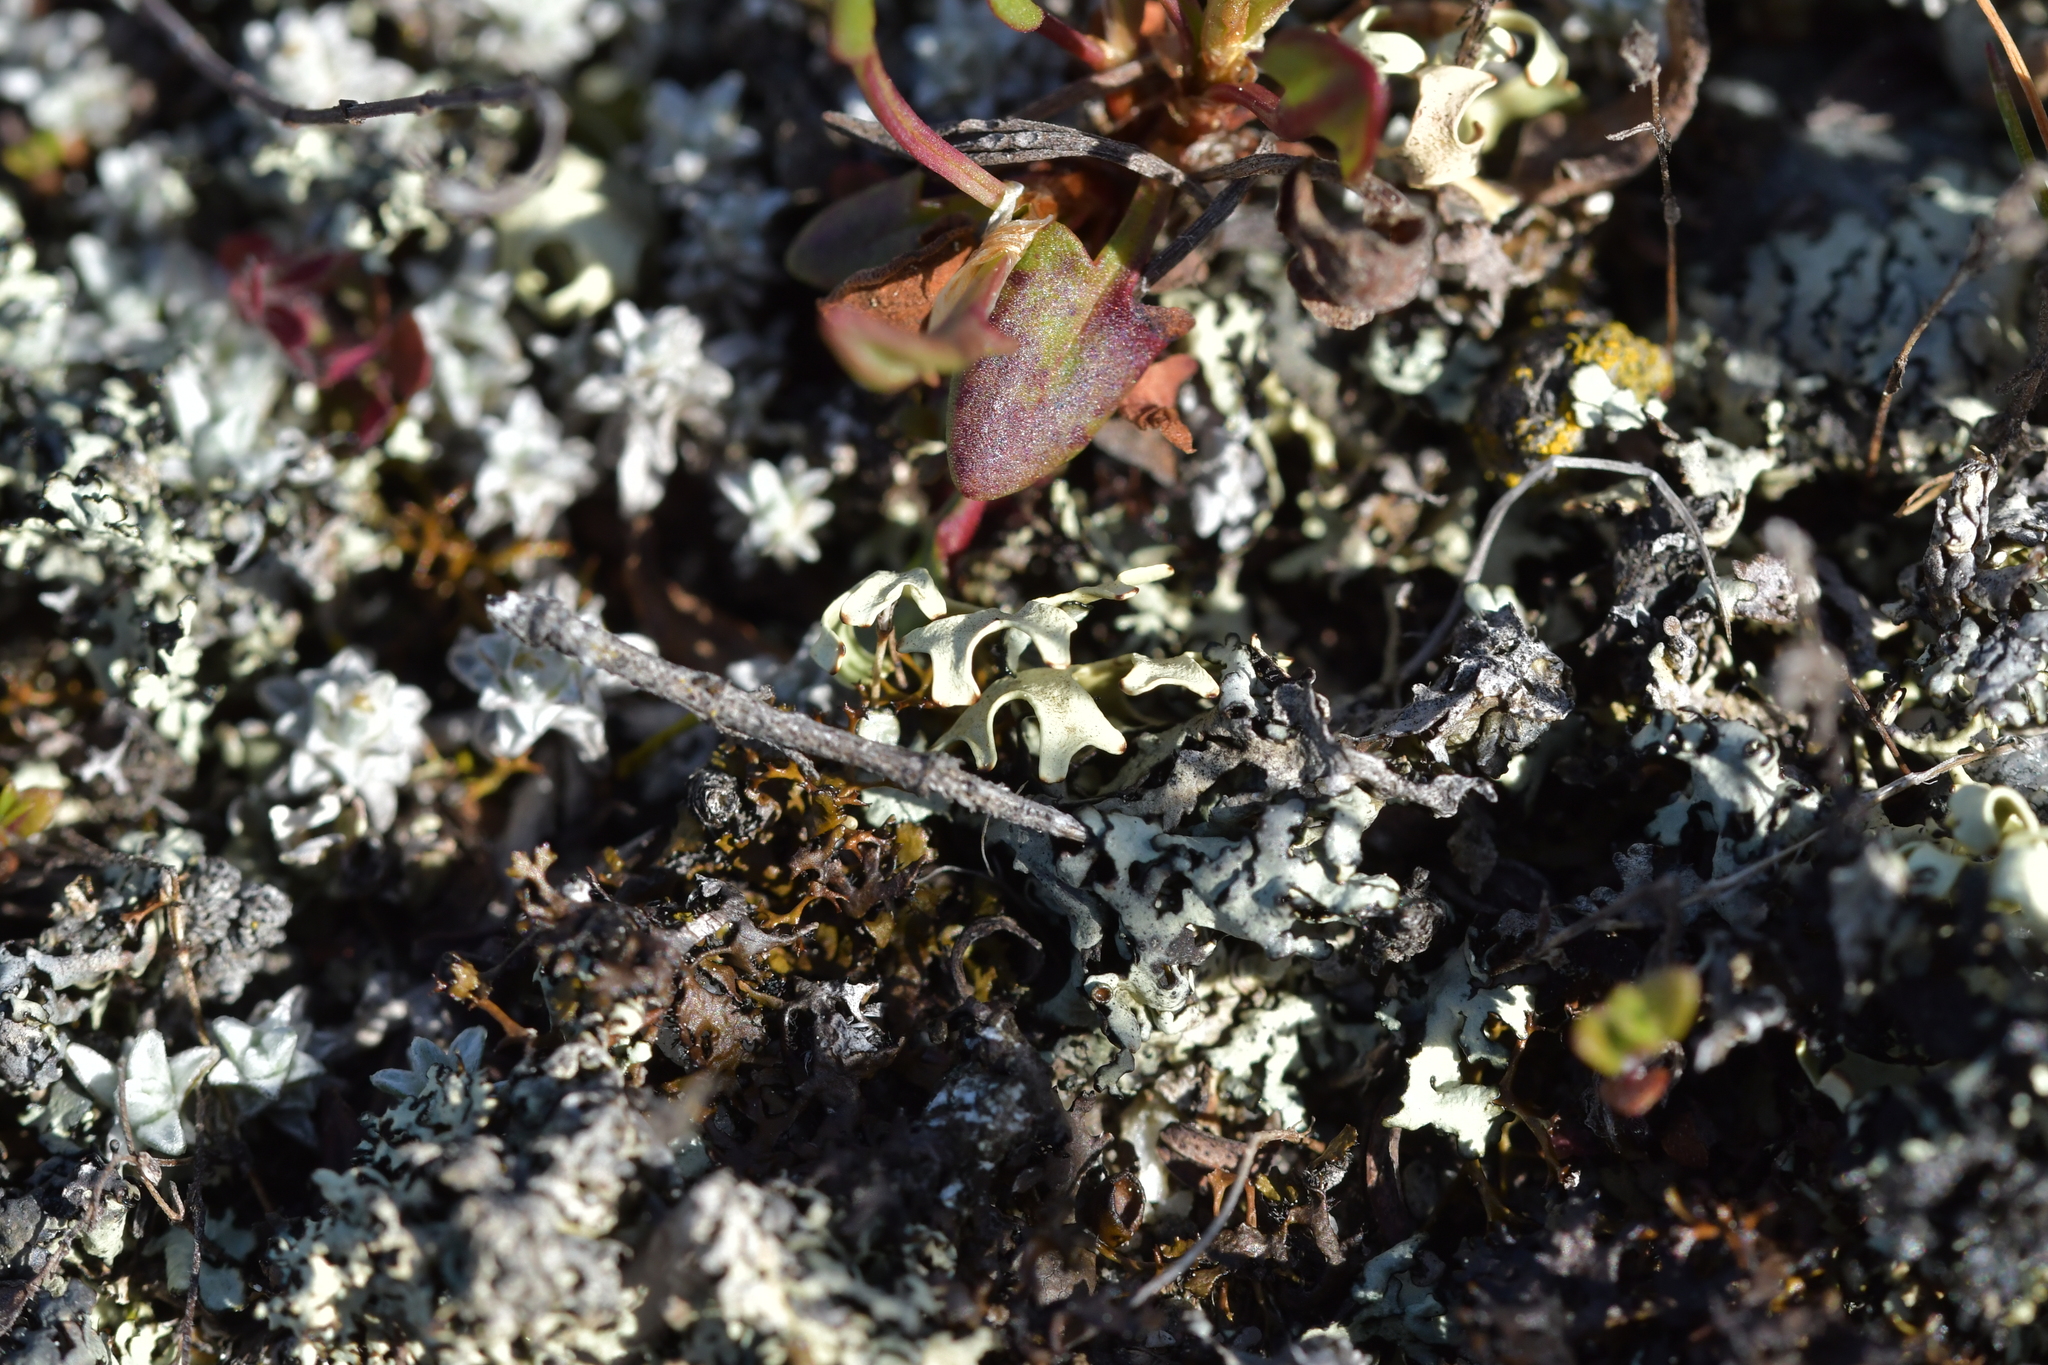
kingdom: Fungi
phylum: Ascomycota
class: Lecanoromycetes
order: Lecanorales
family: Parmeliaceae
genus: Xanthoparmelia
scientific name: Xanthoparmelia semiviridis
